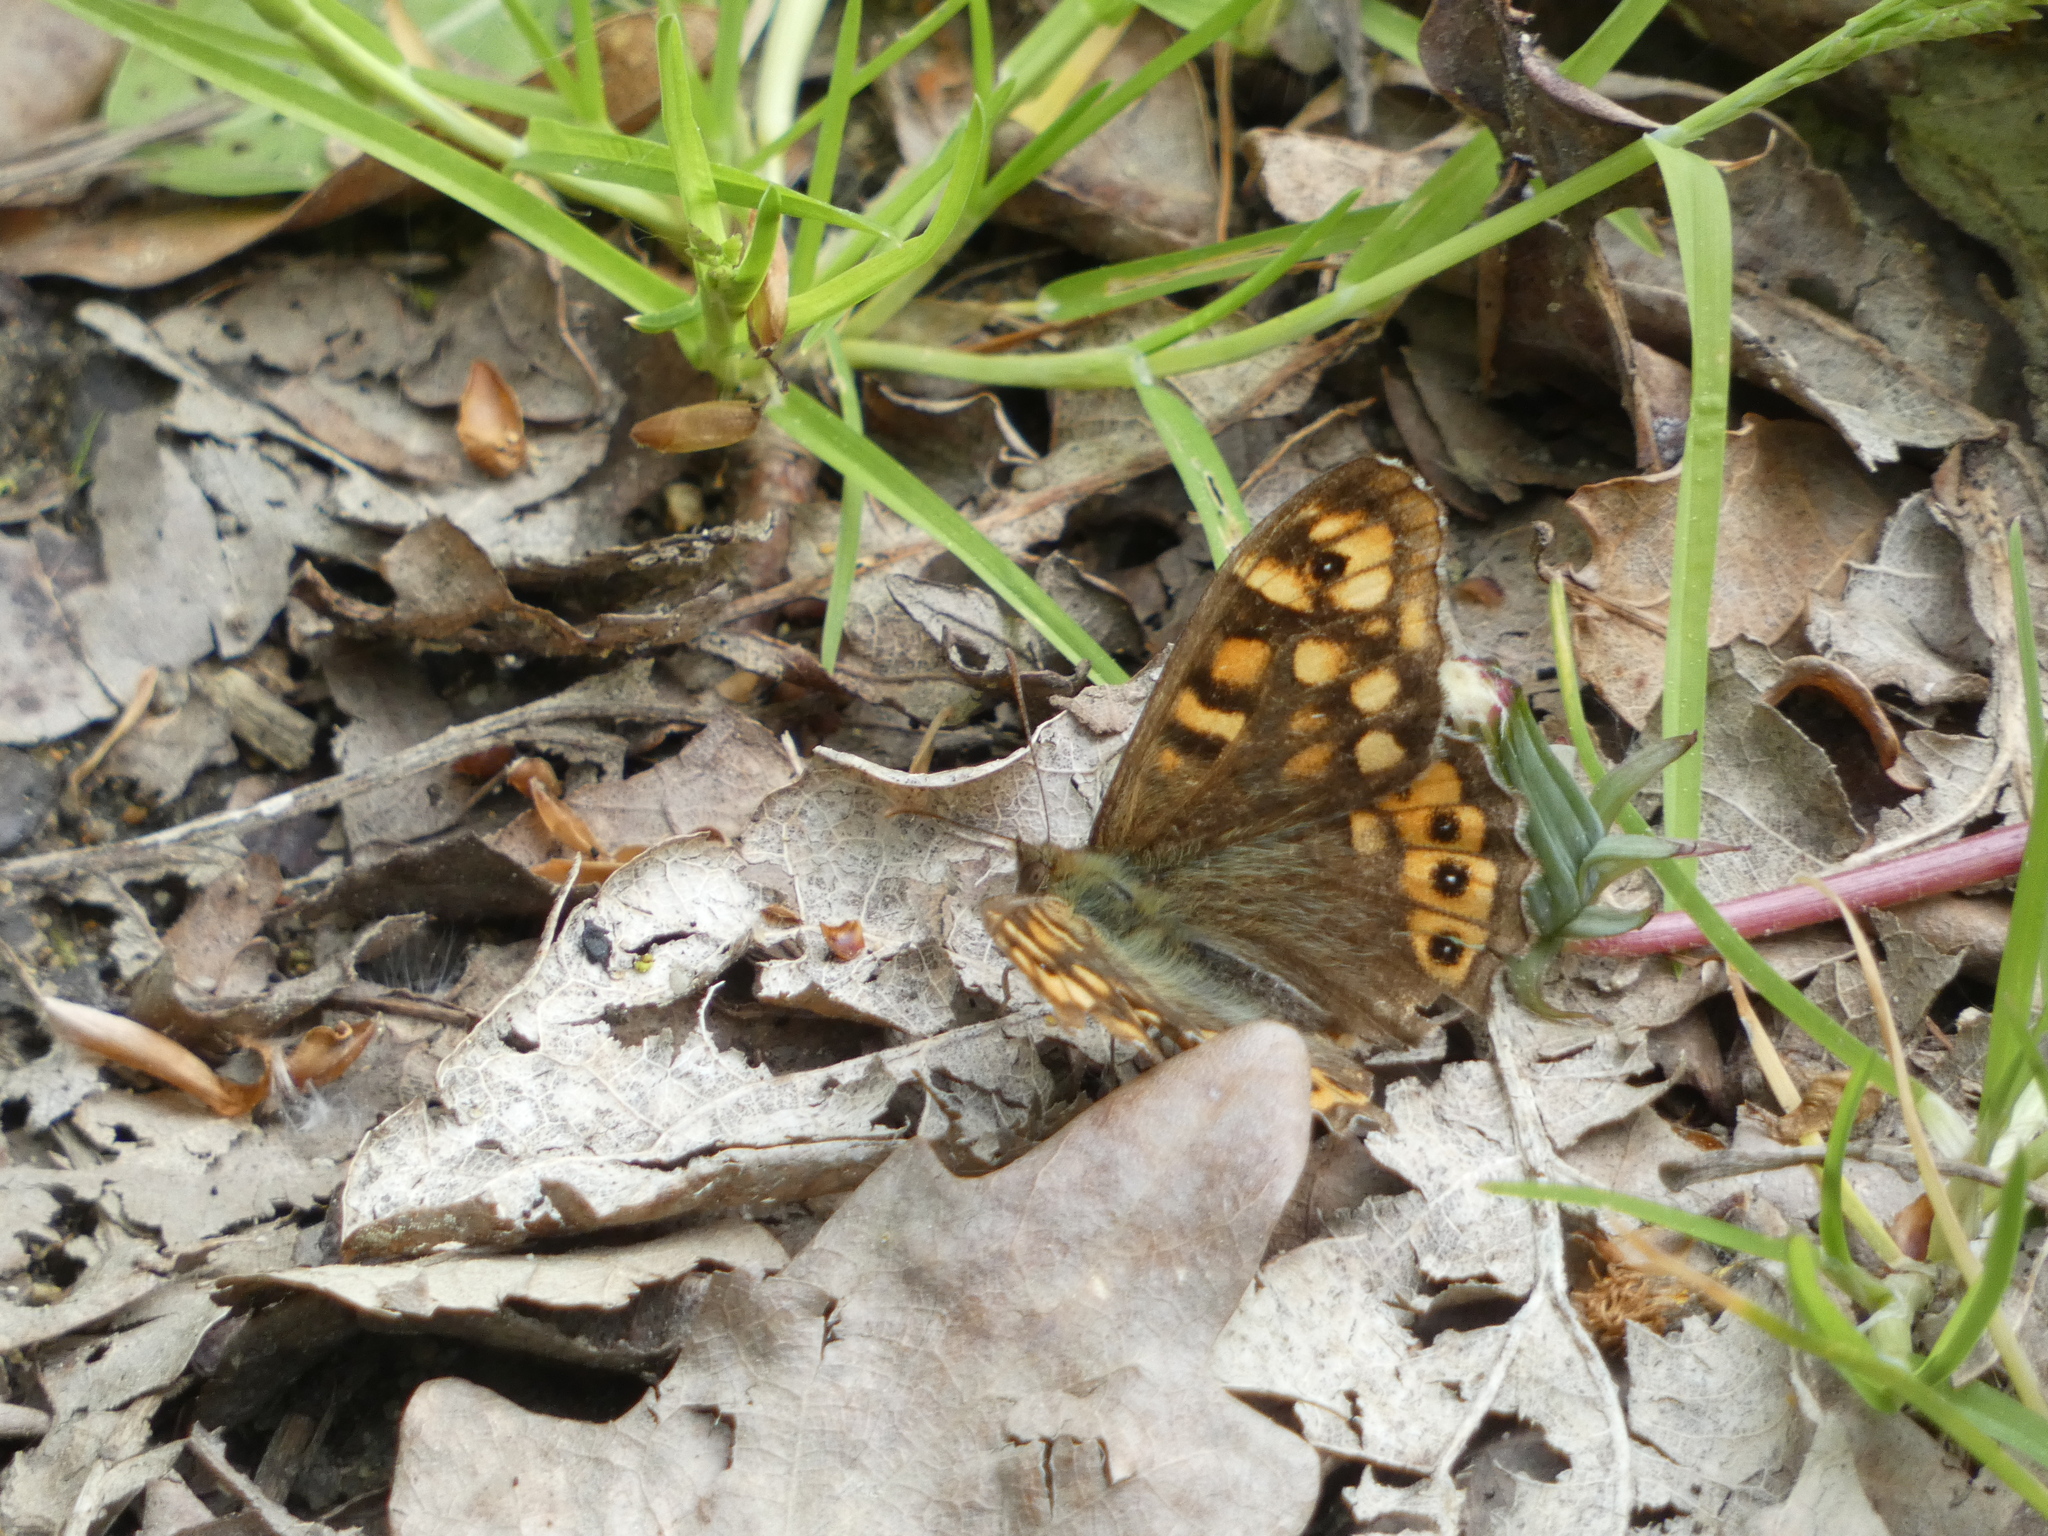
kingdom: Animalia
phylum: Arthropoda
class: Insecta
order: Lepidoptera
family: Nymphalidae
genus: Pararge
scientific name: Pararge aegeria
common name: Speckled wood
